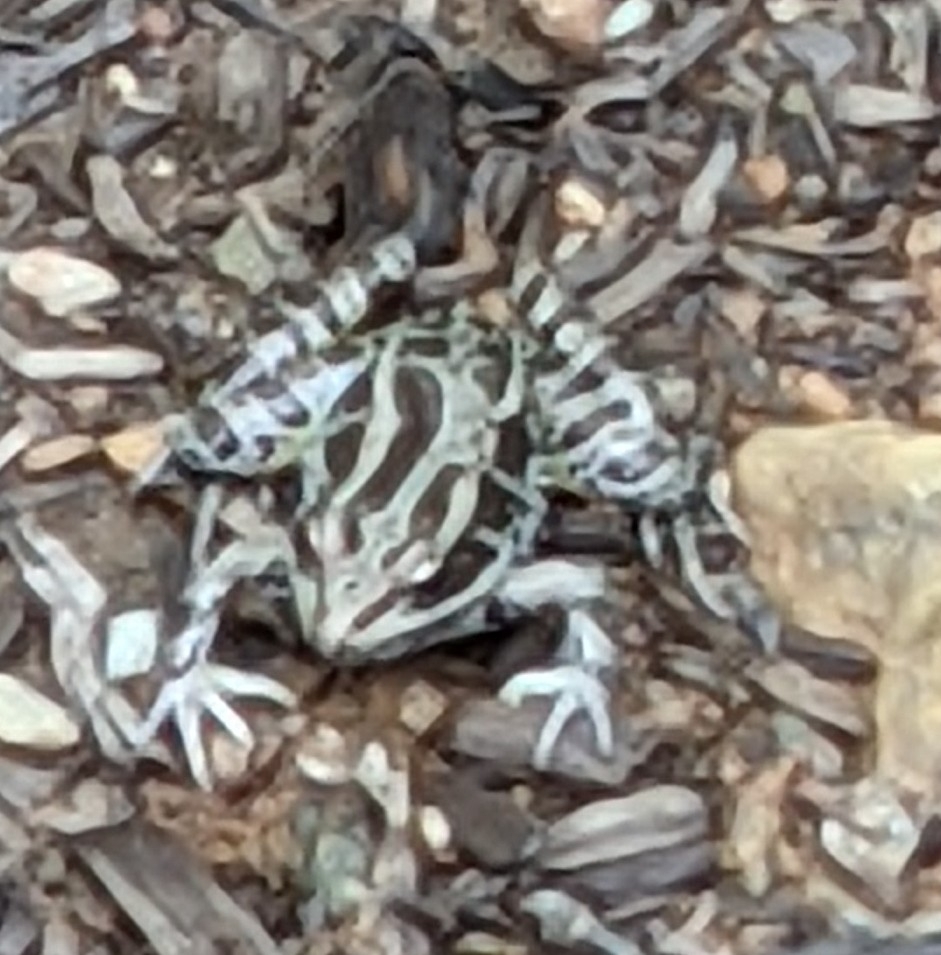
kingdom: Animalia
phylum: Chordata
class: Amphibia
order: Anura
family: Ranidae
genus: Lithobates
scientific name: Lithobates palustris
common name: Pickerel frog
